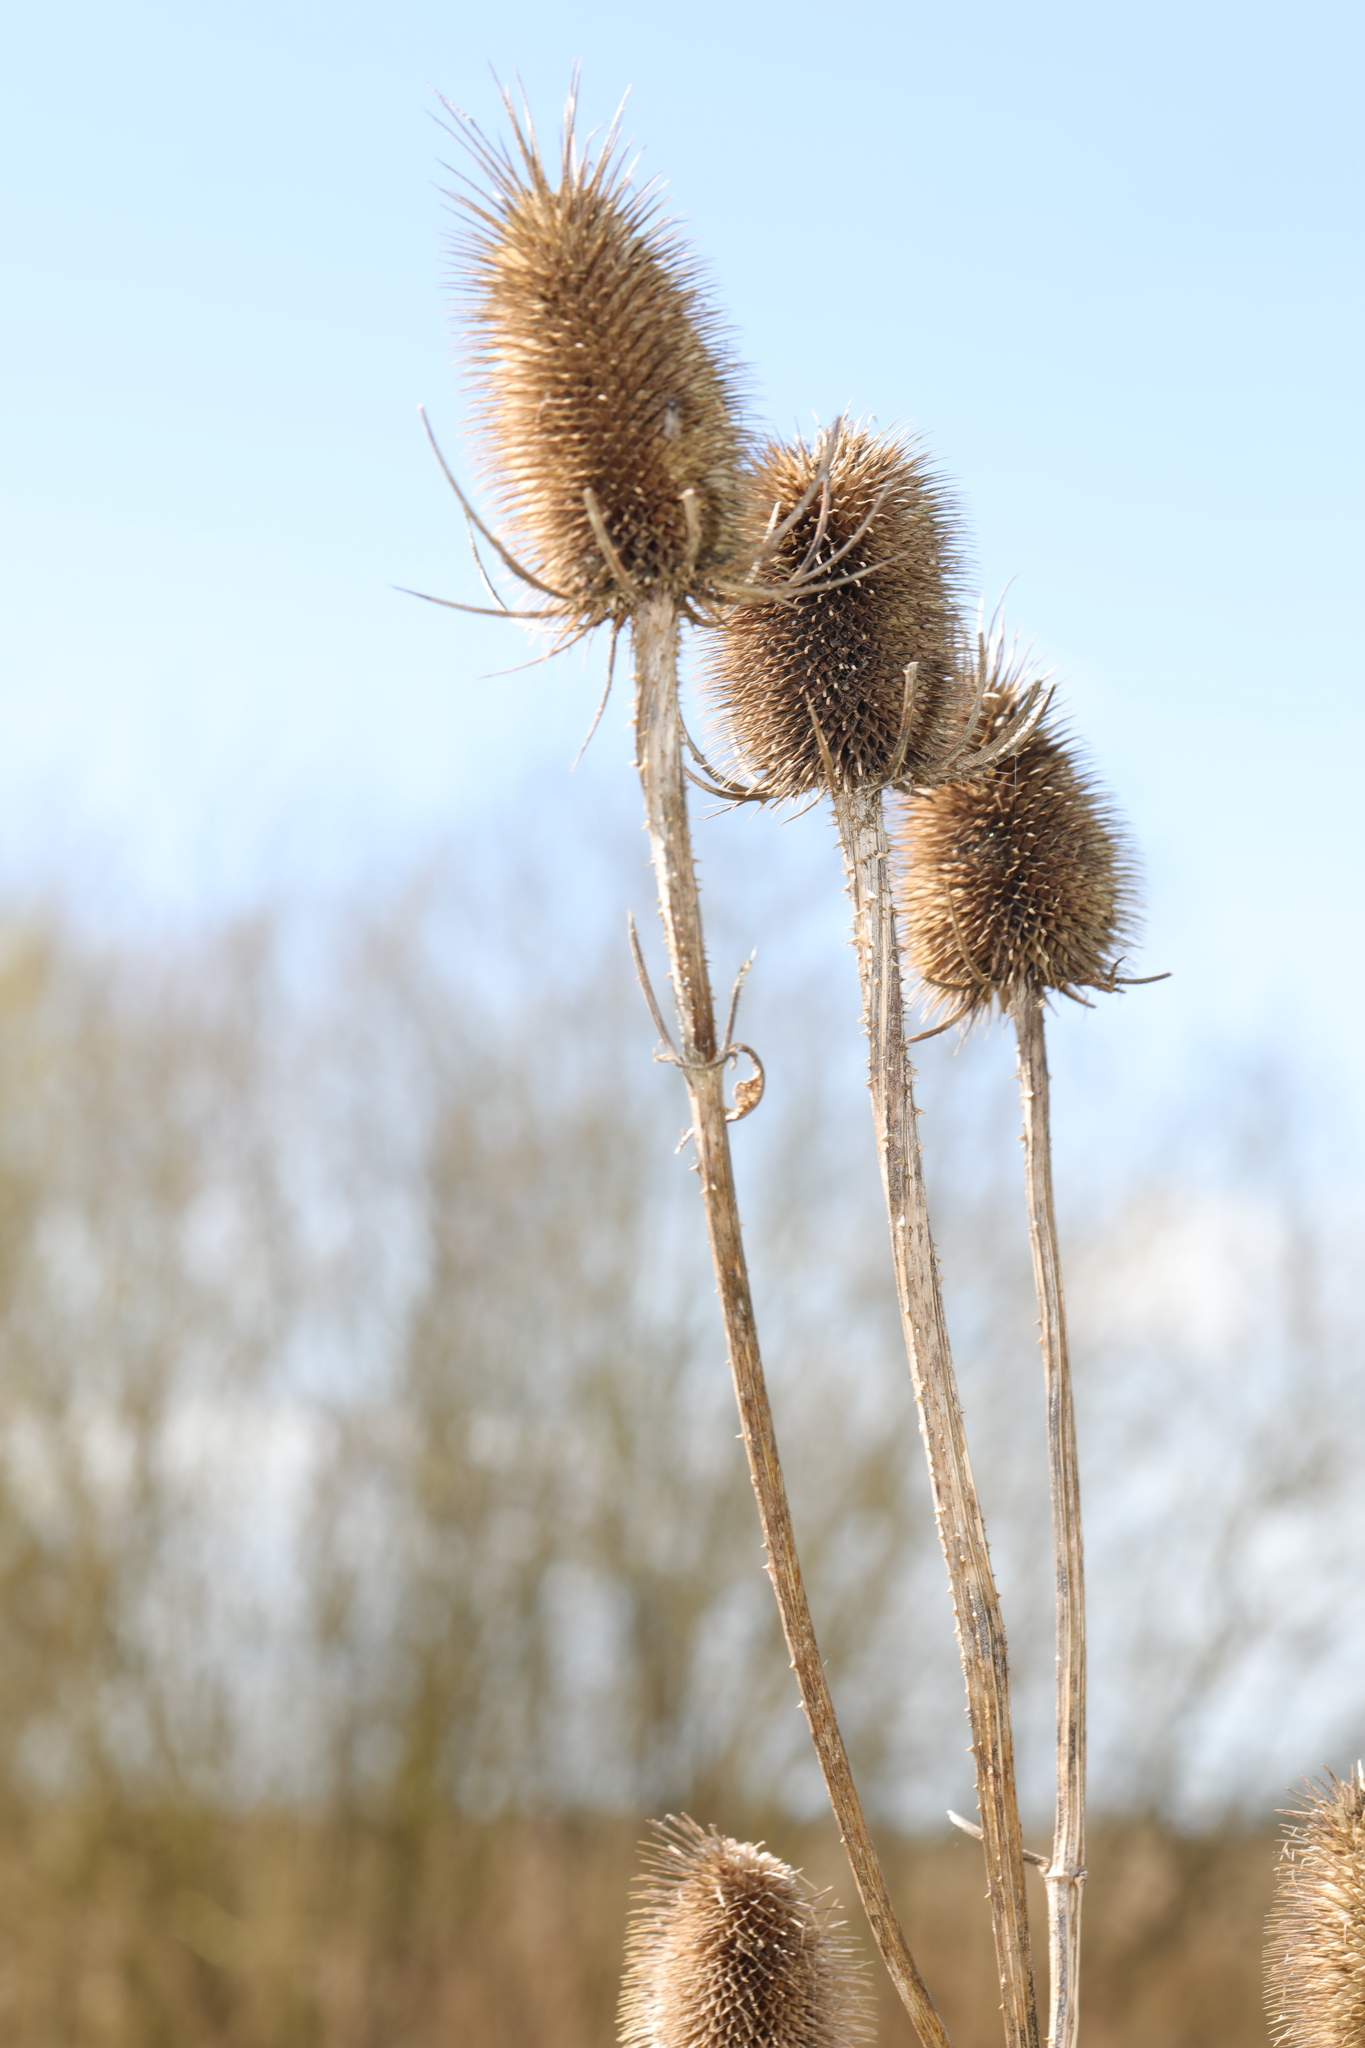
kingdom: Plantae
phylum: Tracheophyta
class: Magnoliopsida
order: Dipsacales
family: Caprifoliaceae
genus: Dipsacus
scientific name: Dipsacus fullonum
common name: Teasel
